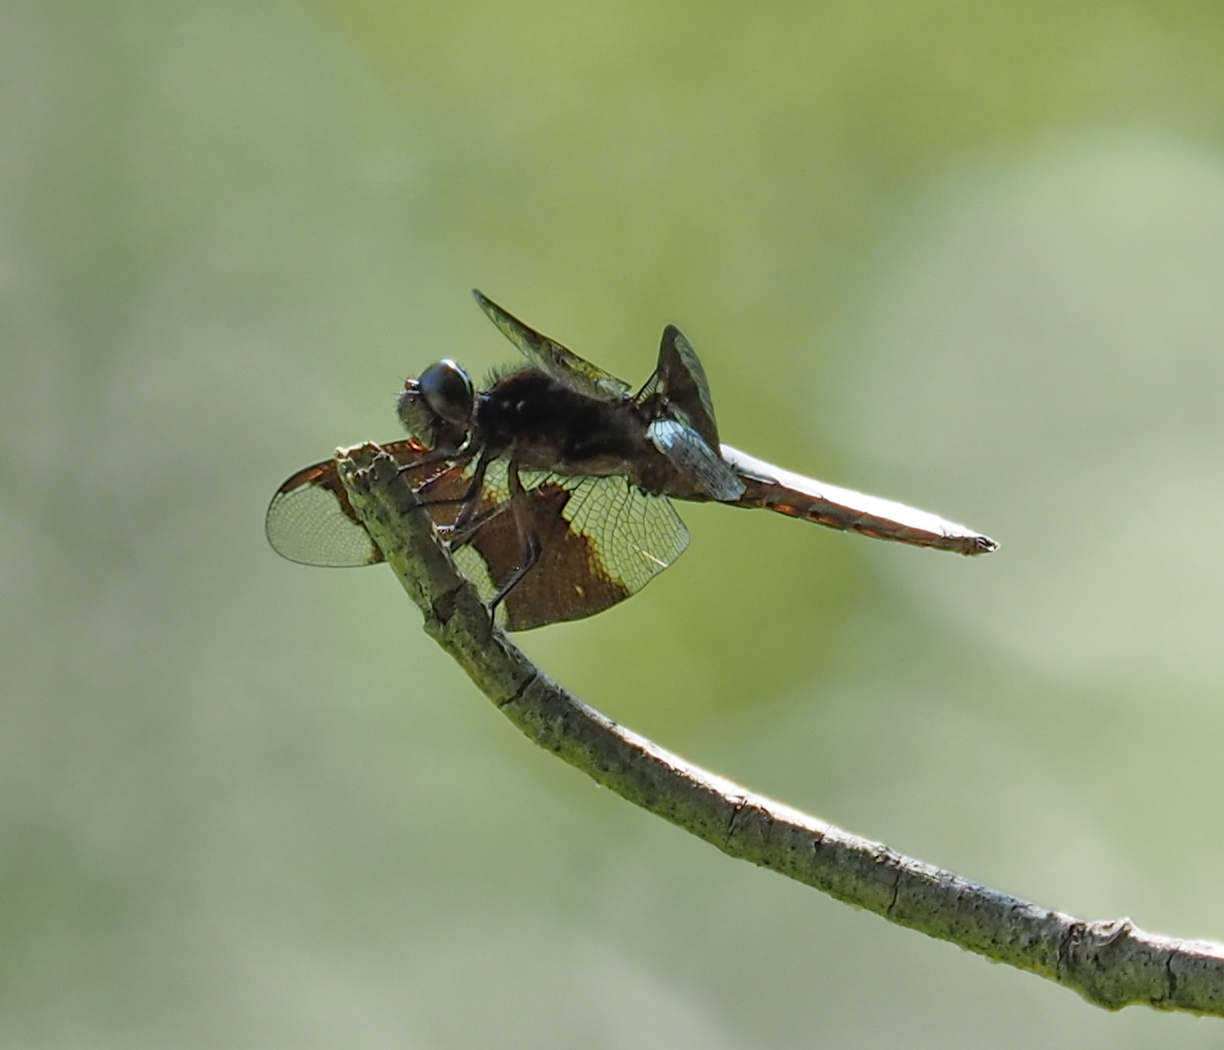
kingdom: Animalia
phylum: Arthropoda
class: Insecta
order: Odonata
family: Libellulidae
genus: Plathemis
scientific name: Plathemis lydia
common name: Common whitetail
